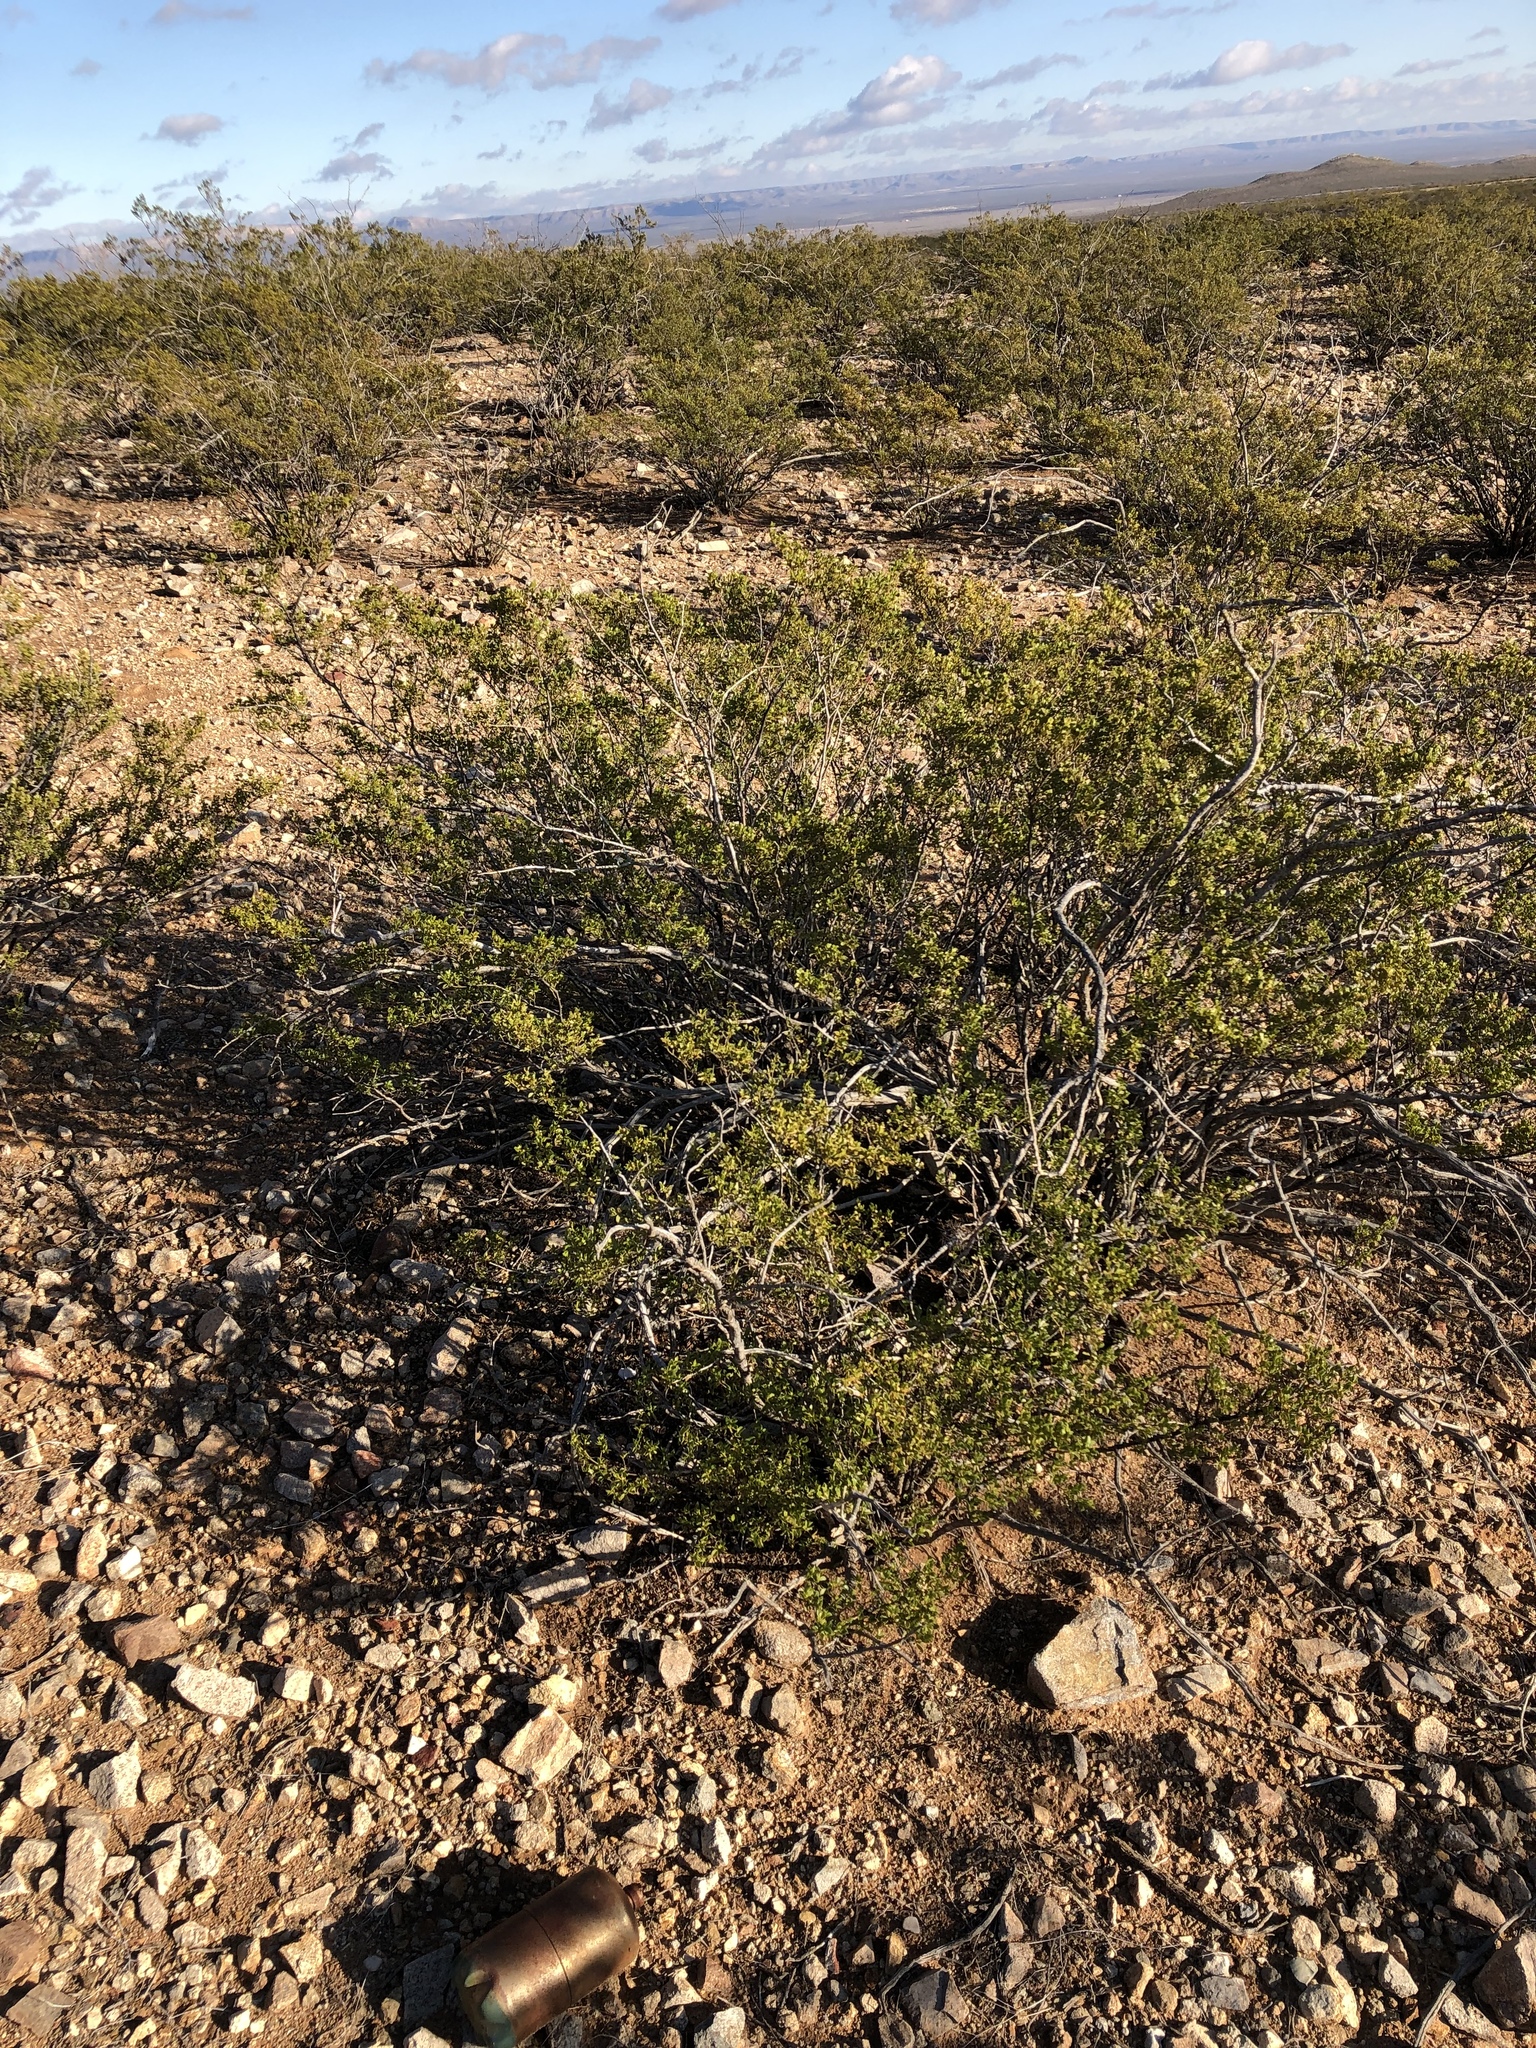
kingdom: Plantae
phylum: Tracheophyta
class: Magnoliopsida
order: Zygophyllales
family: Zygophyllaceae
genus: Larrea
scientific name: Larrea tridentata
